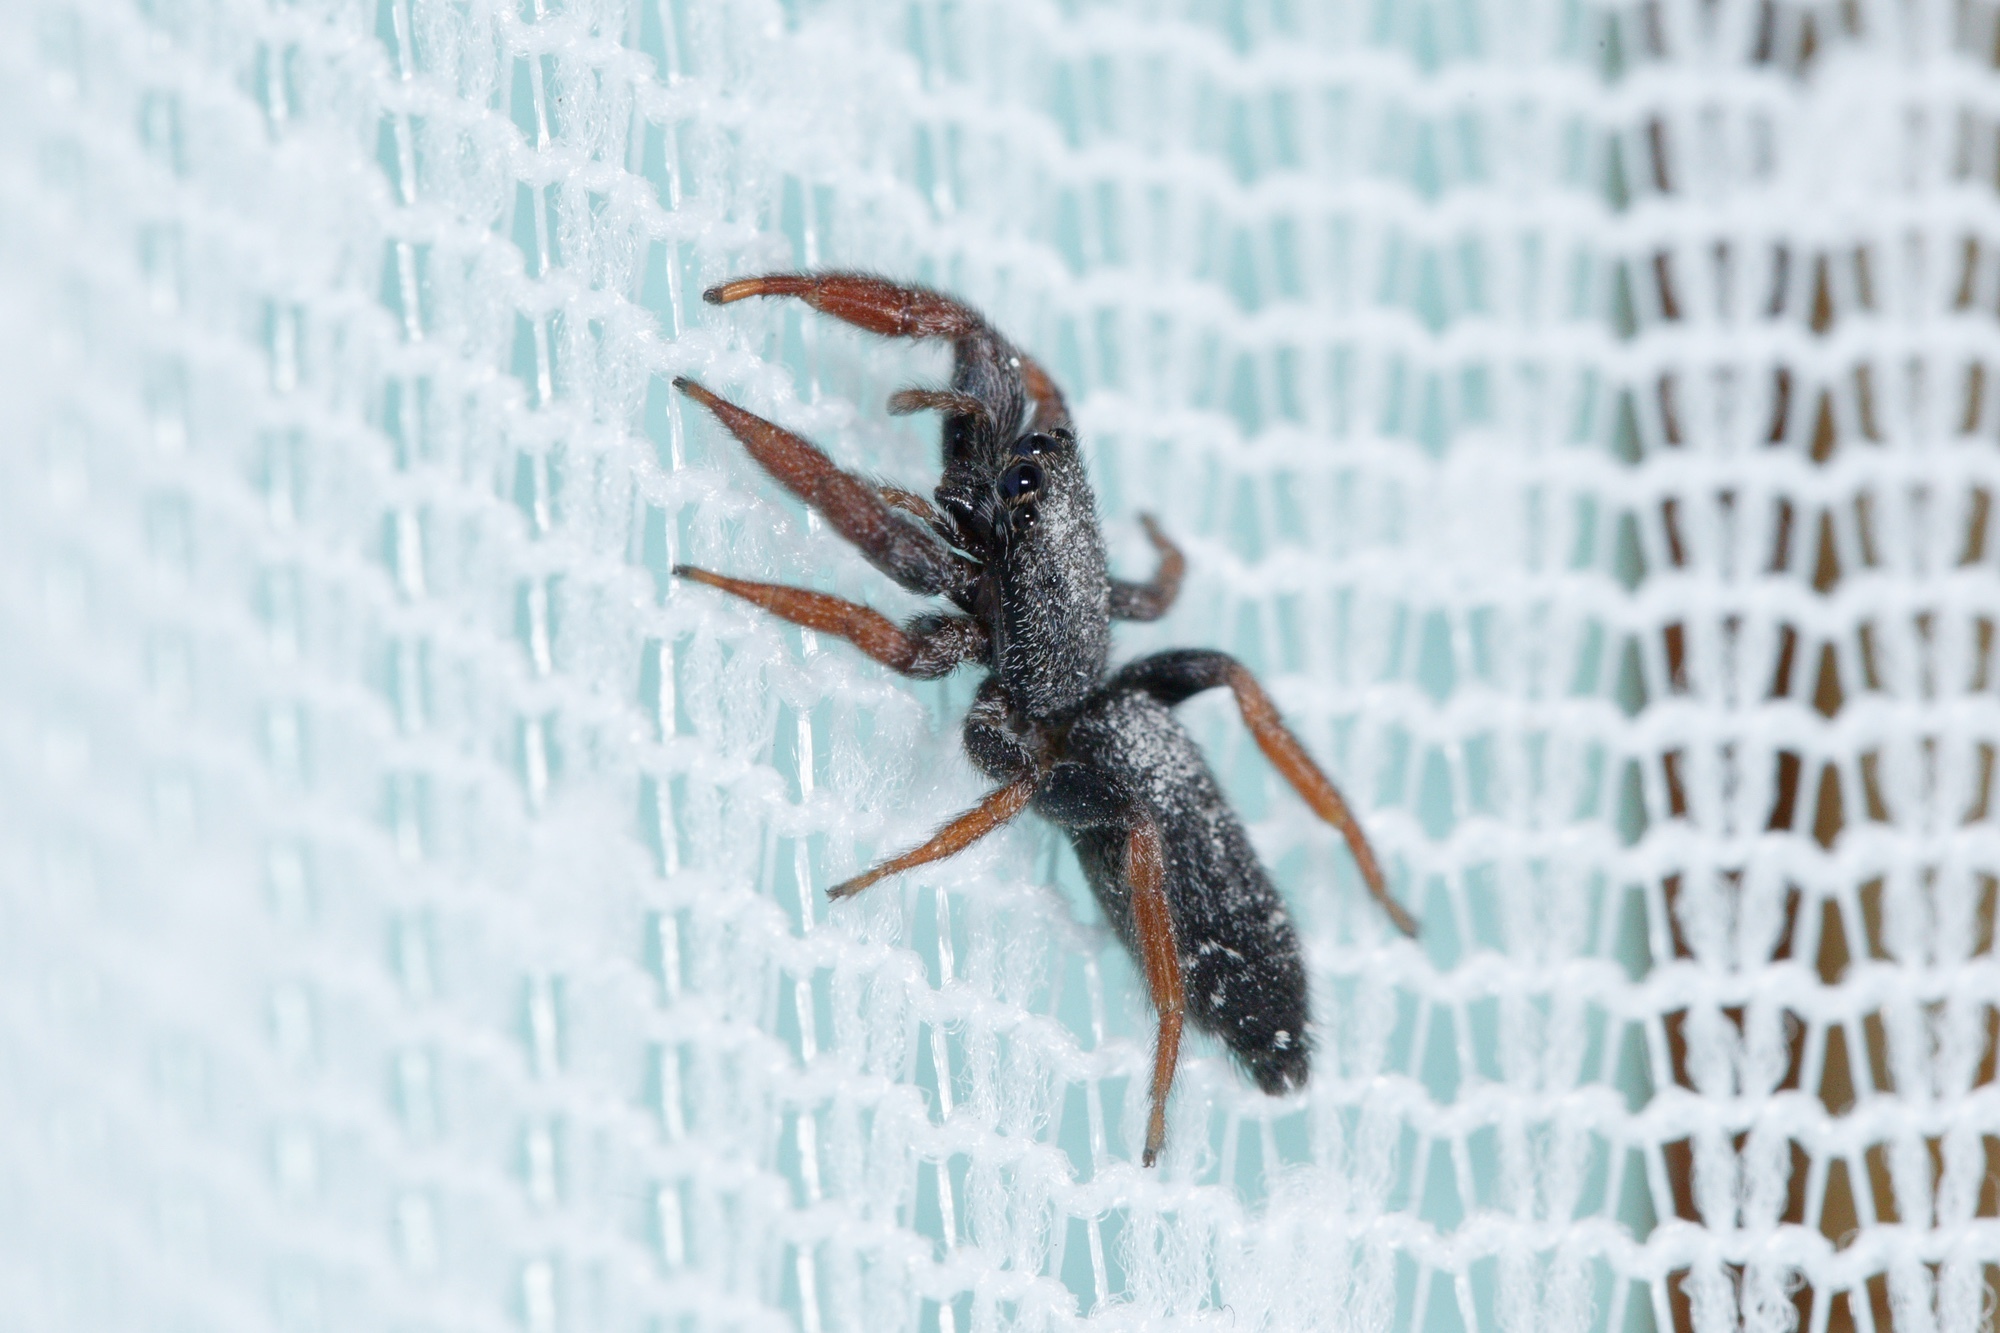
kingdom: Animalia
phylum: Arthropoda
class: Arachnida
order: Araneae
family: Salticidae
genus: Holoplatys
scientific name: Holoplatys invenusta
